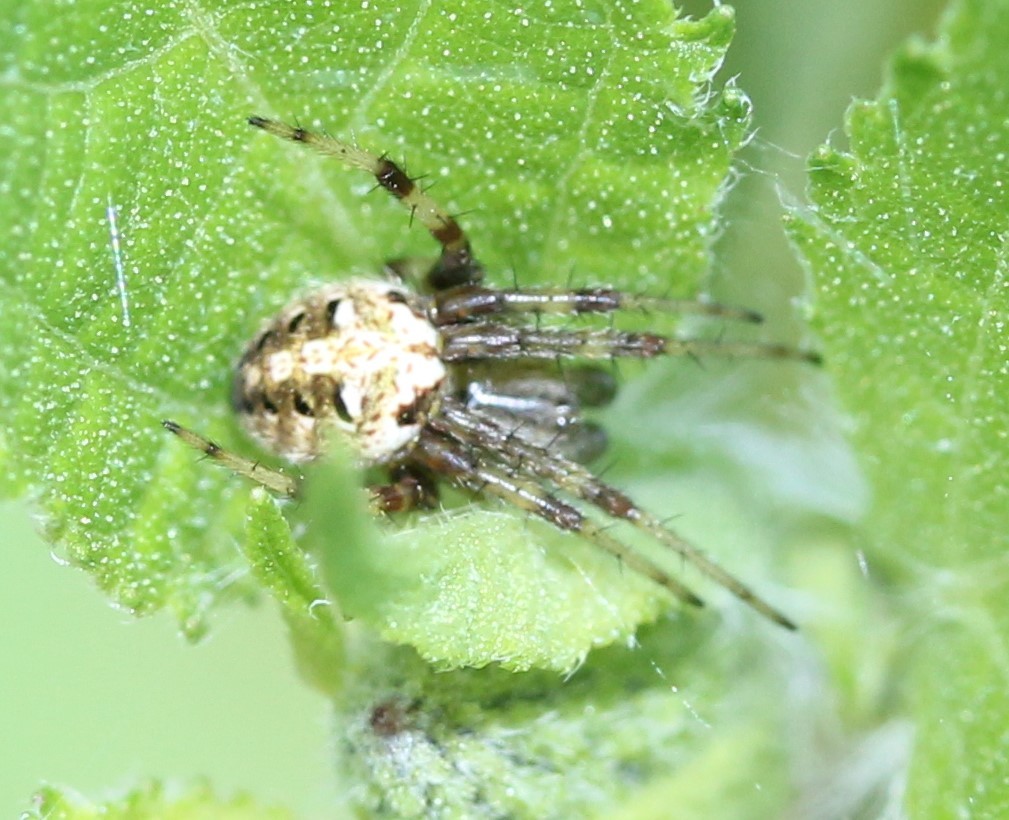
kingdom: Animalia
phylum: Arthropoda
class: Arachnida
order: Araneae
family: Araneidae
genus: Neoscona
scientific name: Neoscona arabesca
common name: Orb weavers
